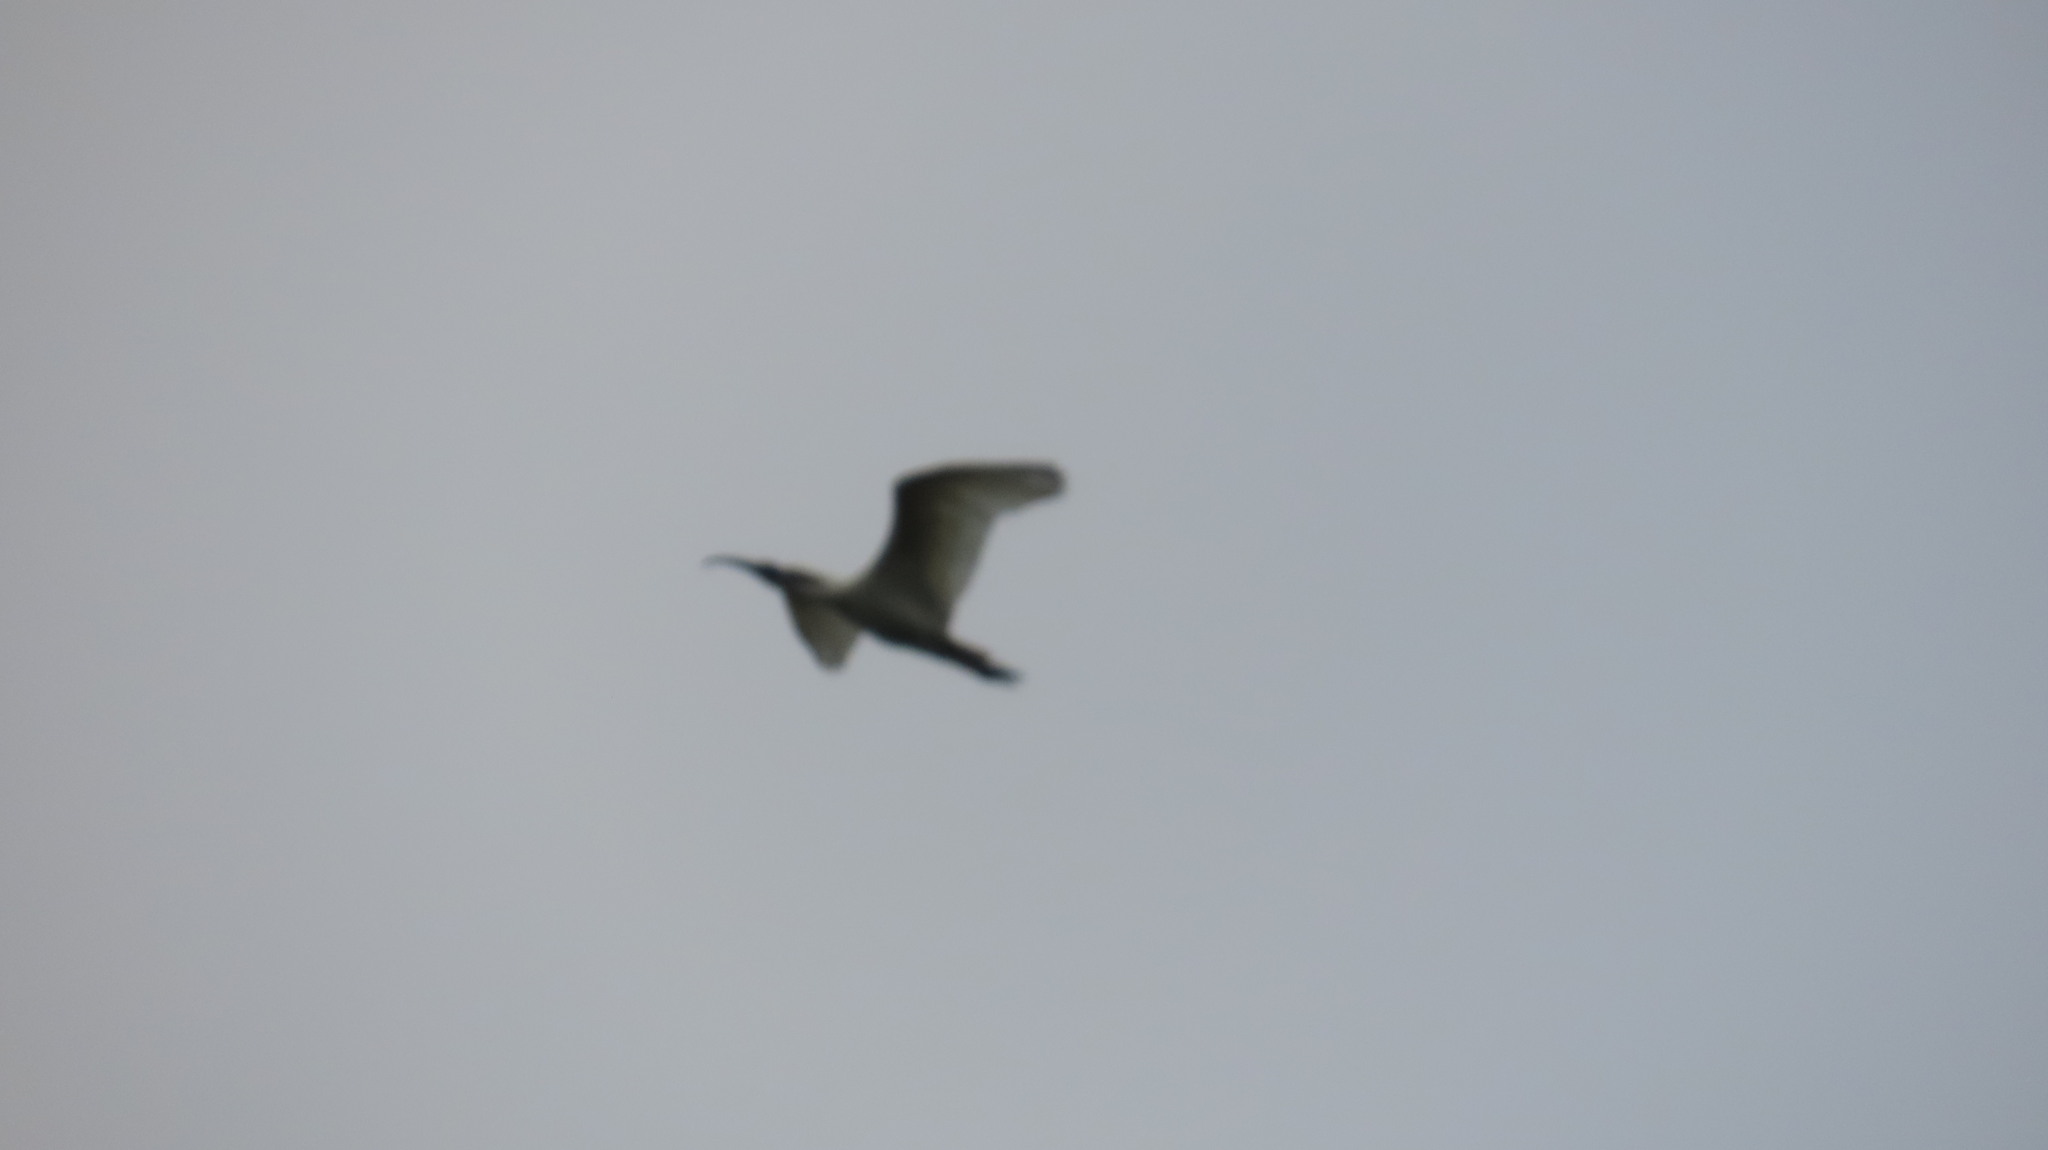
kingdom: Animalia
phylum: Chordata
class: Aves
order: Pelecaniformes
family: Threskiornithidae
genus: Threskiornis
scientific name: Threskiornis melanocephalus
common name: Black-headed ibis
